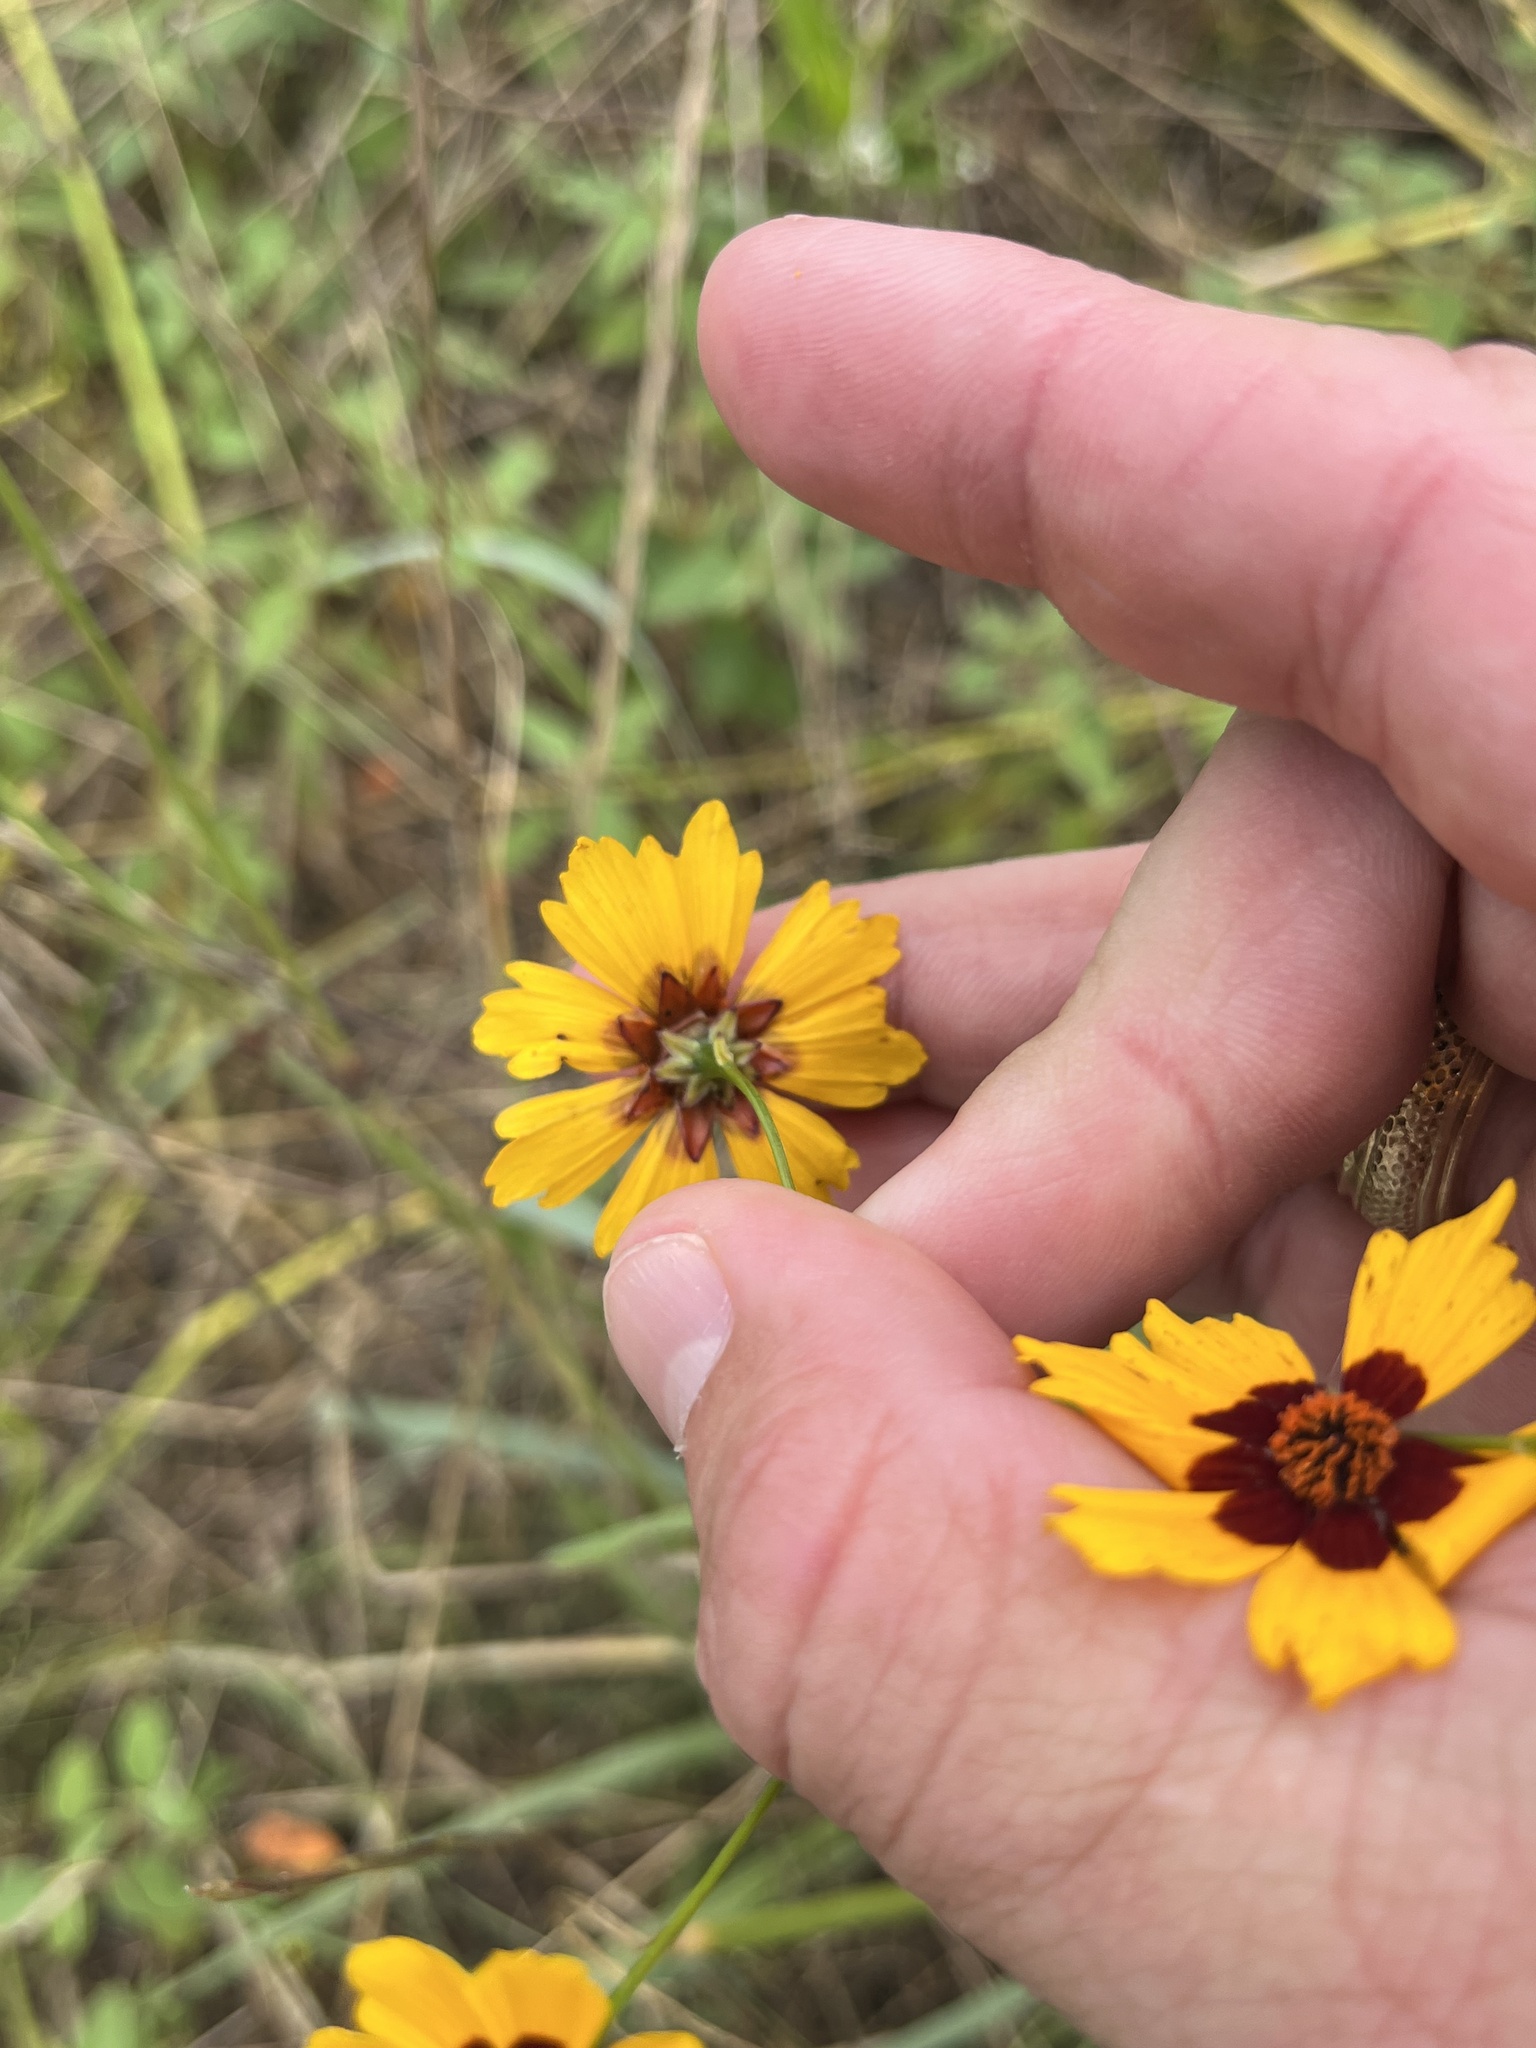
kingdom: Plantae
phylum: Tracheophyta
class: Magnoliopsida
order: Asterales
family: Asteraceae
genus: Coreopsis
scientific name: Coreopsis tinctoria
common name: Garden tickseed
